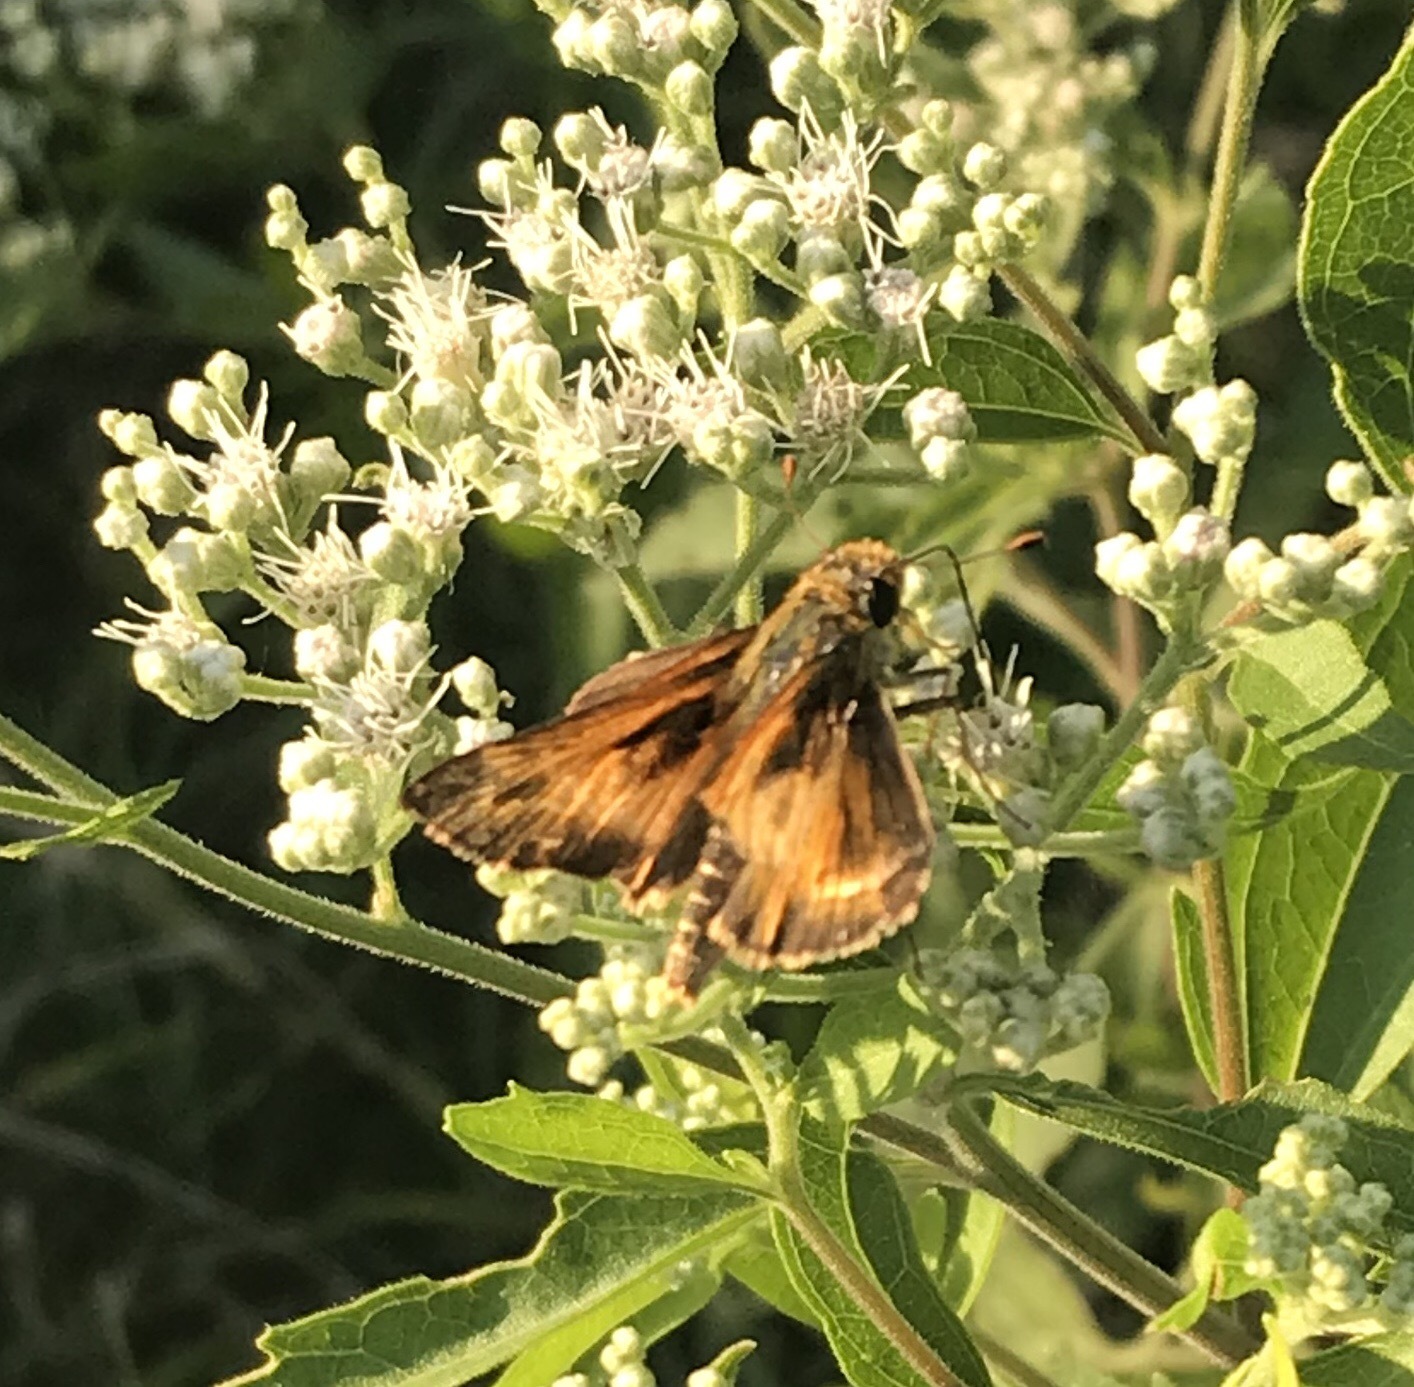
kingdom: Animalia
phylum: Arthropoda
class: Insecta
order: Lepidoptera
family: Hesperiidae
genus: Atalopedes
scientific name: Atalopedes
